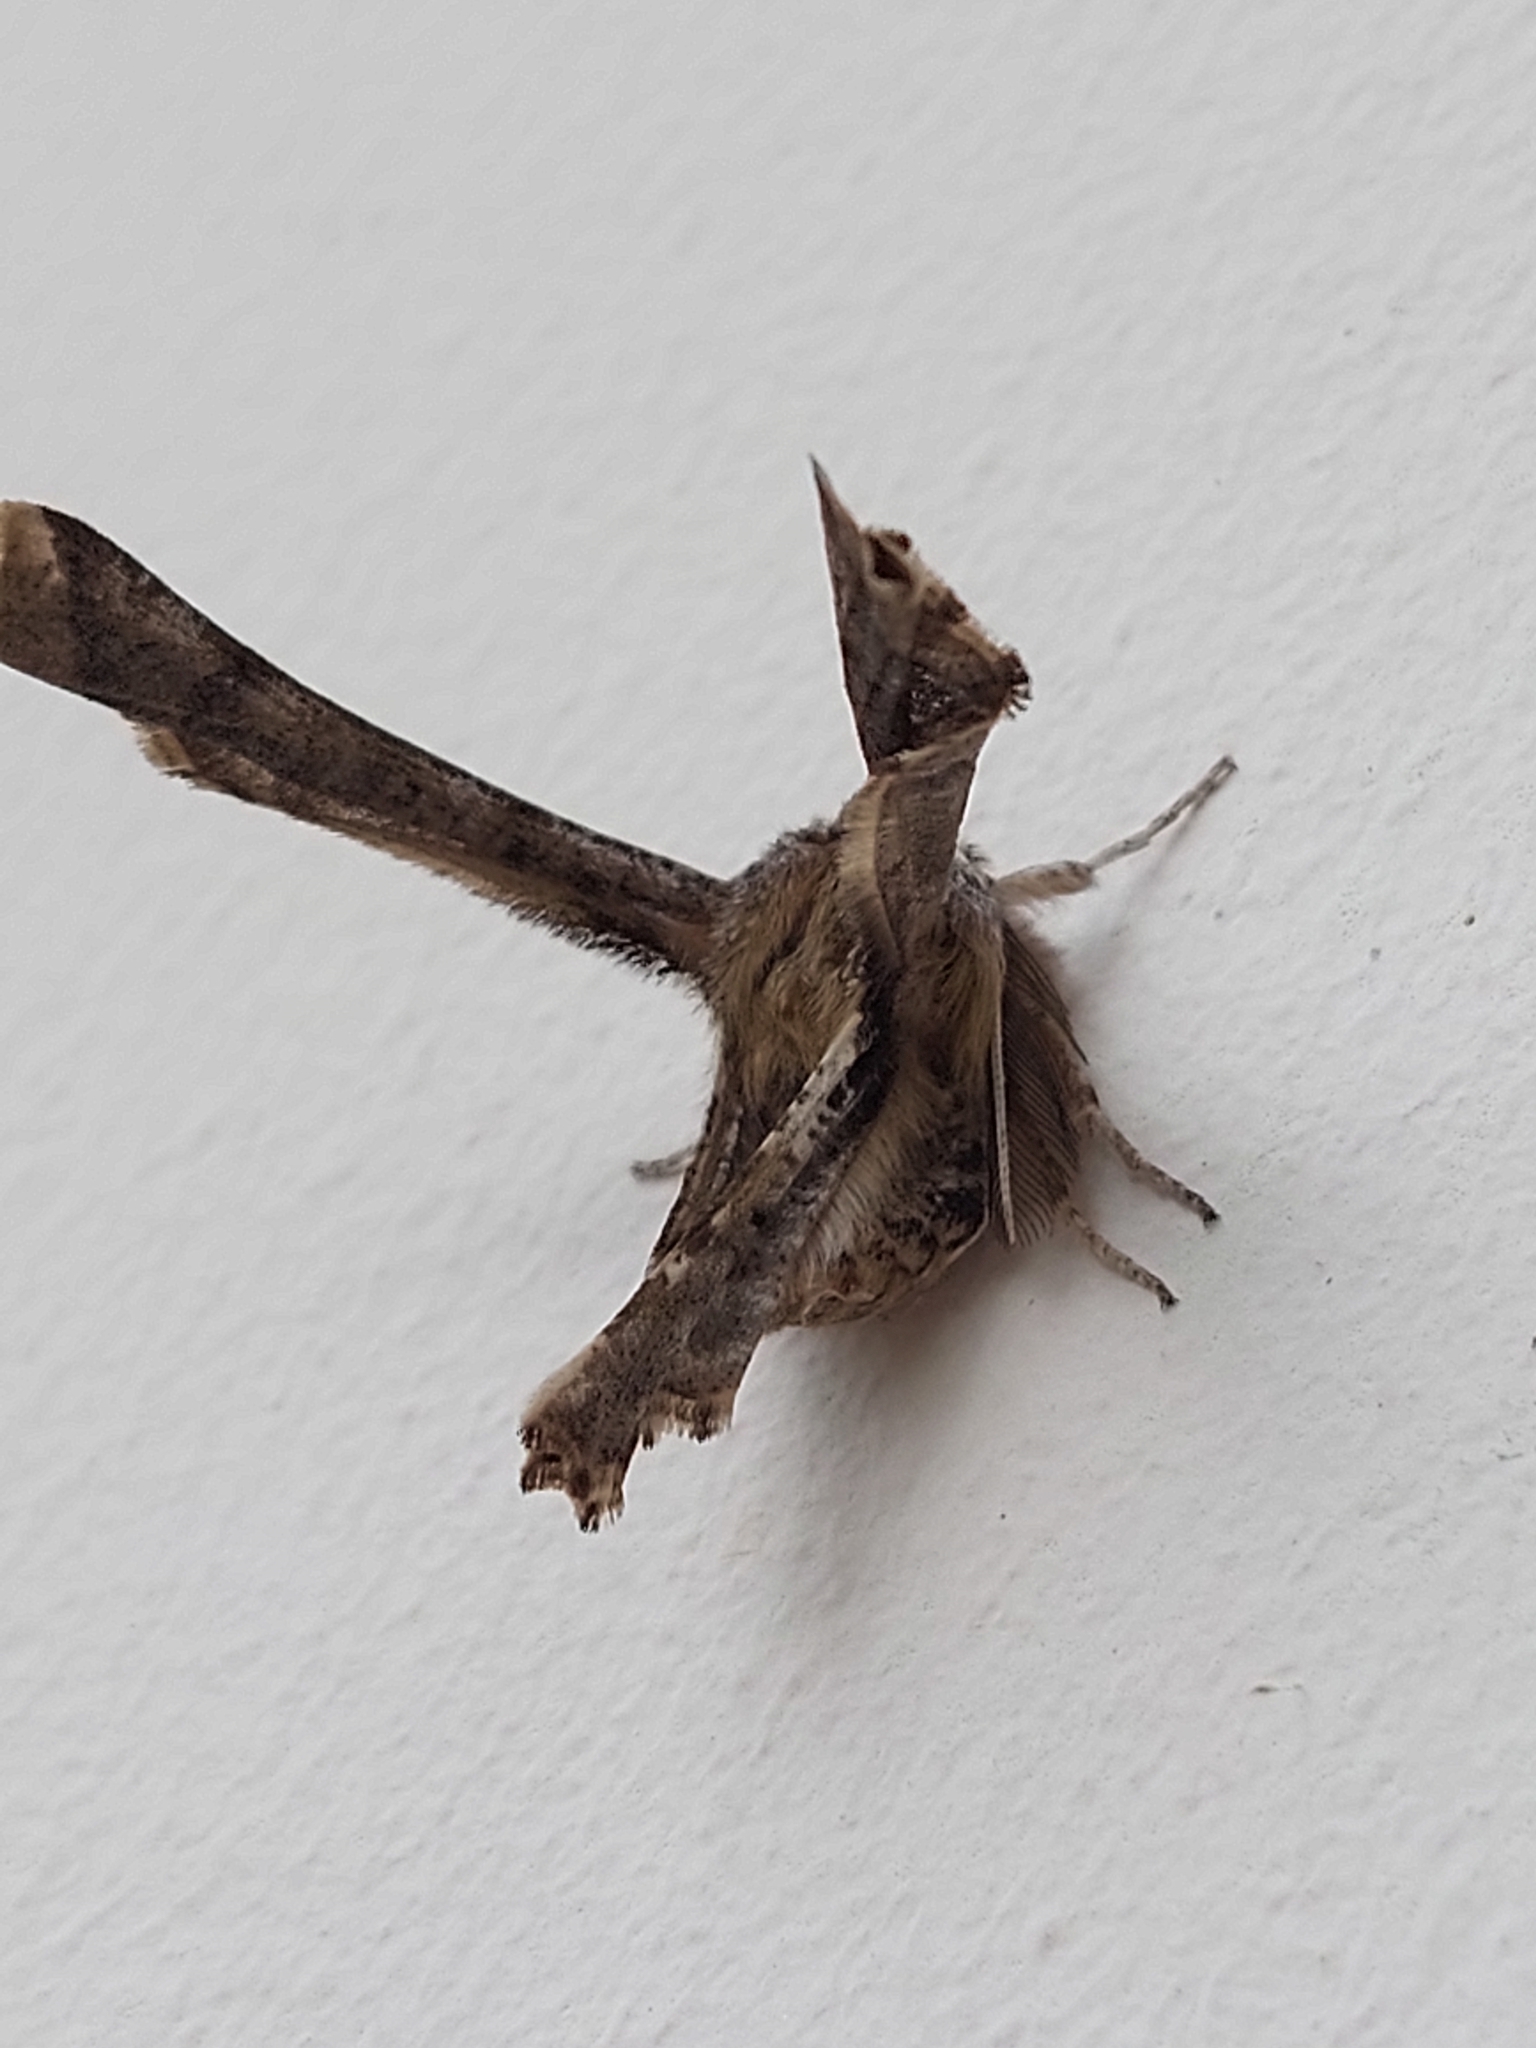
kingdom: Animalia
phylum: Arthropoda
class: Insecta
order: Lepidoptera
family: Geometridae
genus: Apochima
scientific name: Apochima flabellaria
